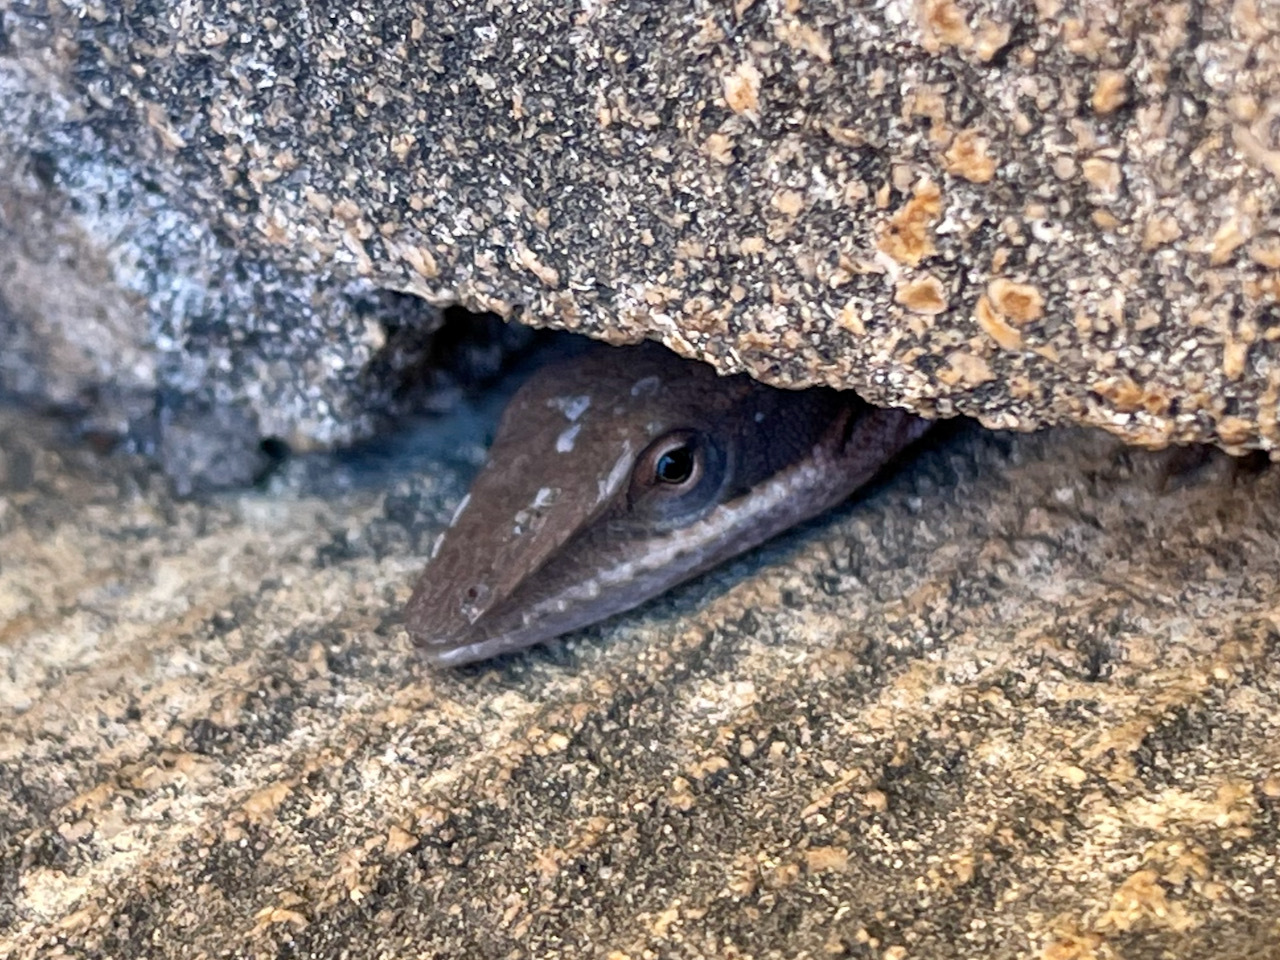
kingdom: Animalia
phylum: Chordata
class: Squamata
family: Dactyloidae
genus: Anolis
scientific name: Anolis carolinensis
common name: Green anole
